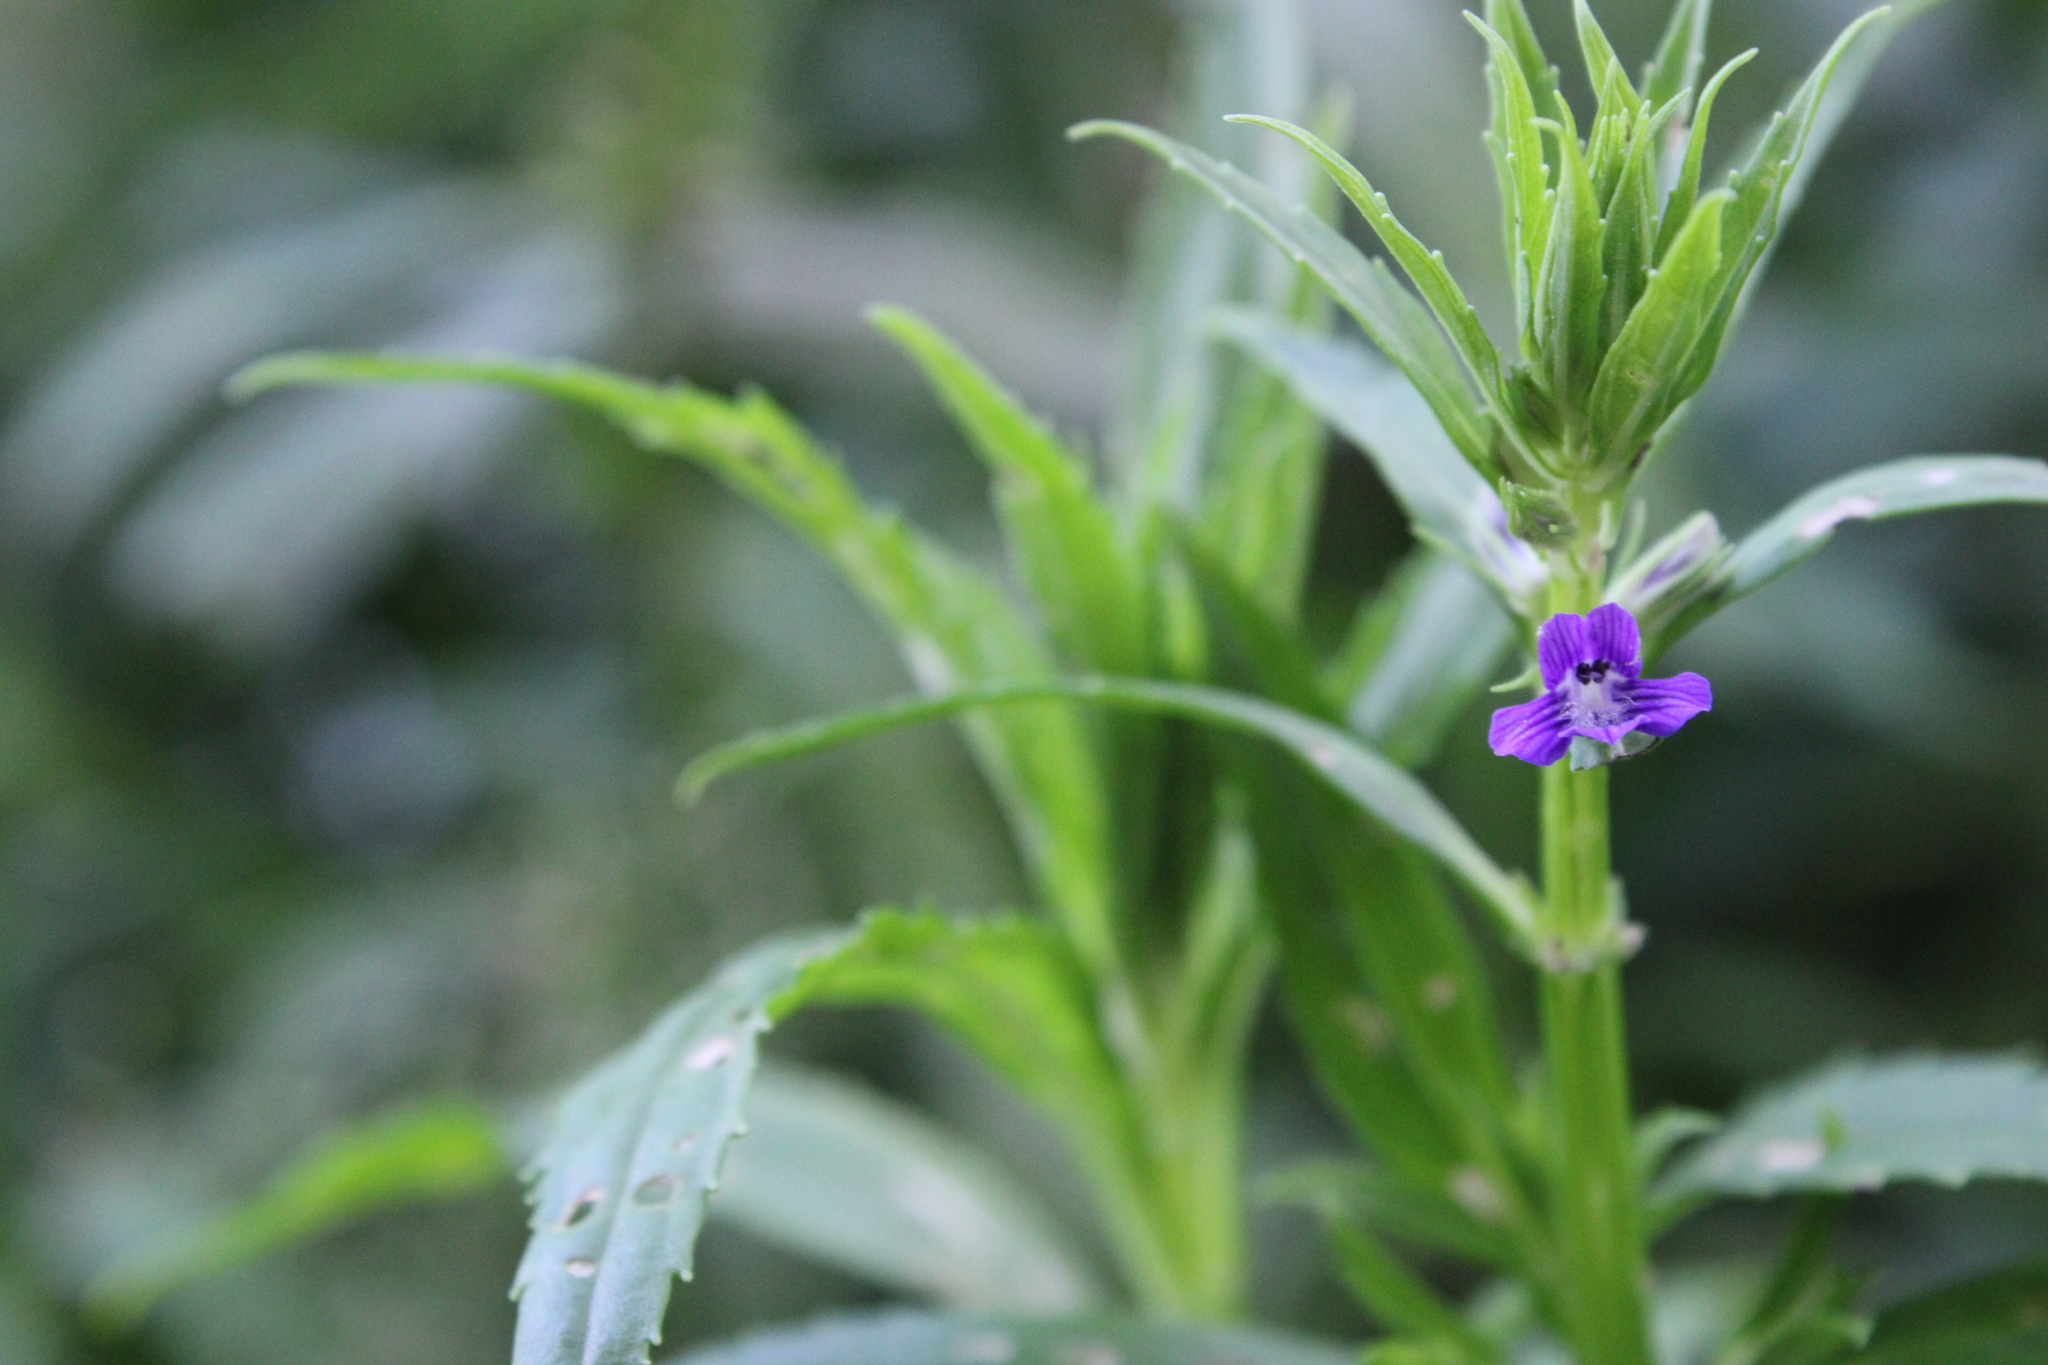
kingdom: Plantae
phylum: Tracheophyta
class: Magnoliopsida
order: Lamiales
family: Plantaginaceae
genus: Stemodia
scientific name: Stemodia lobelioides
